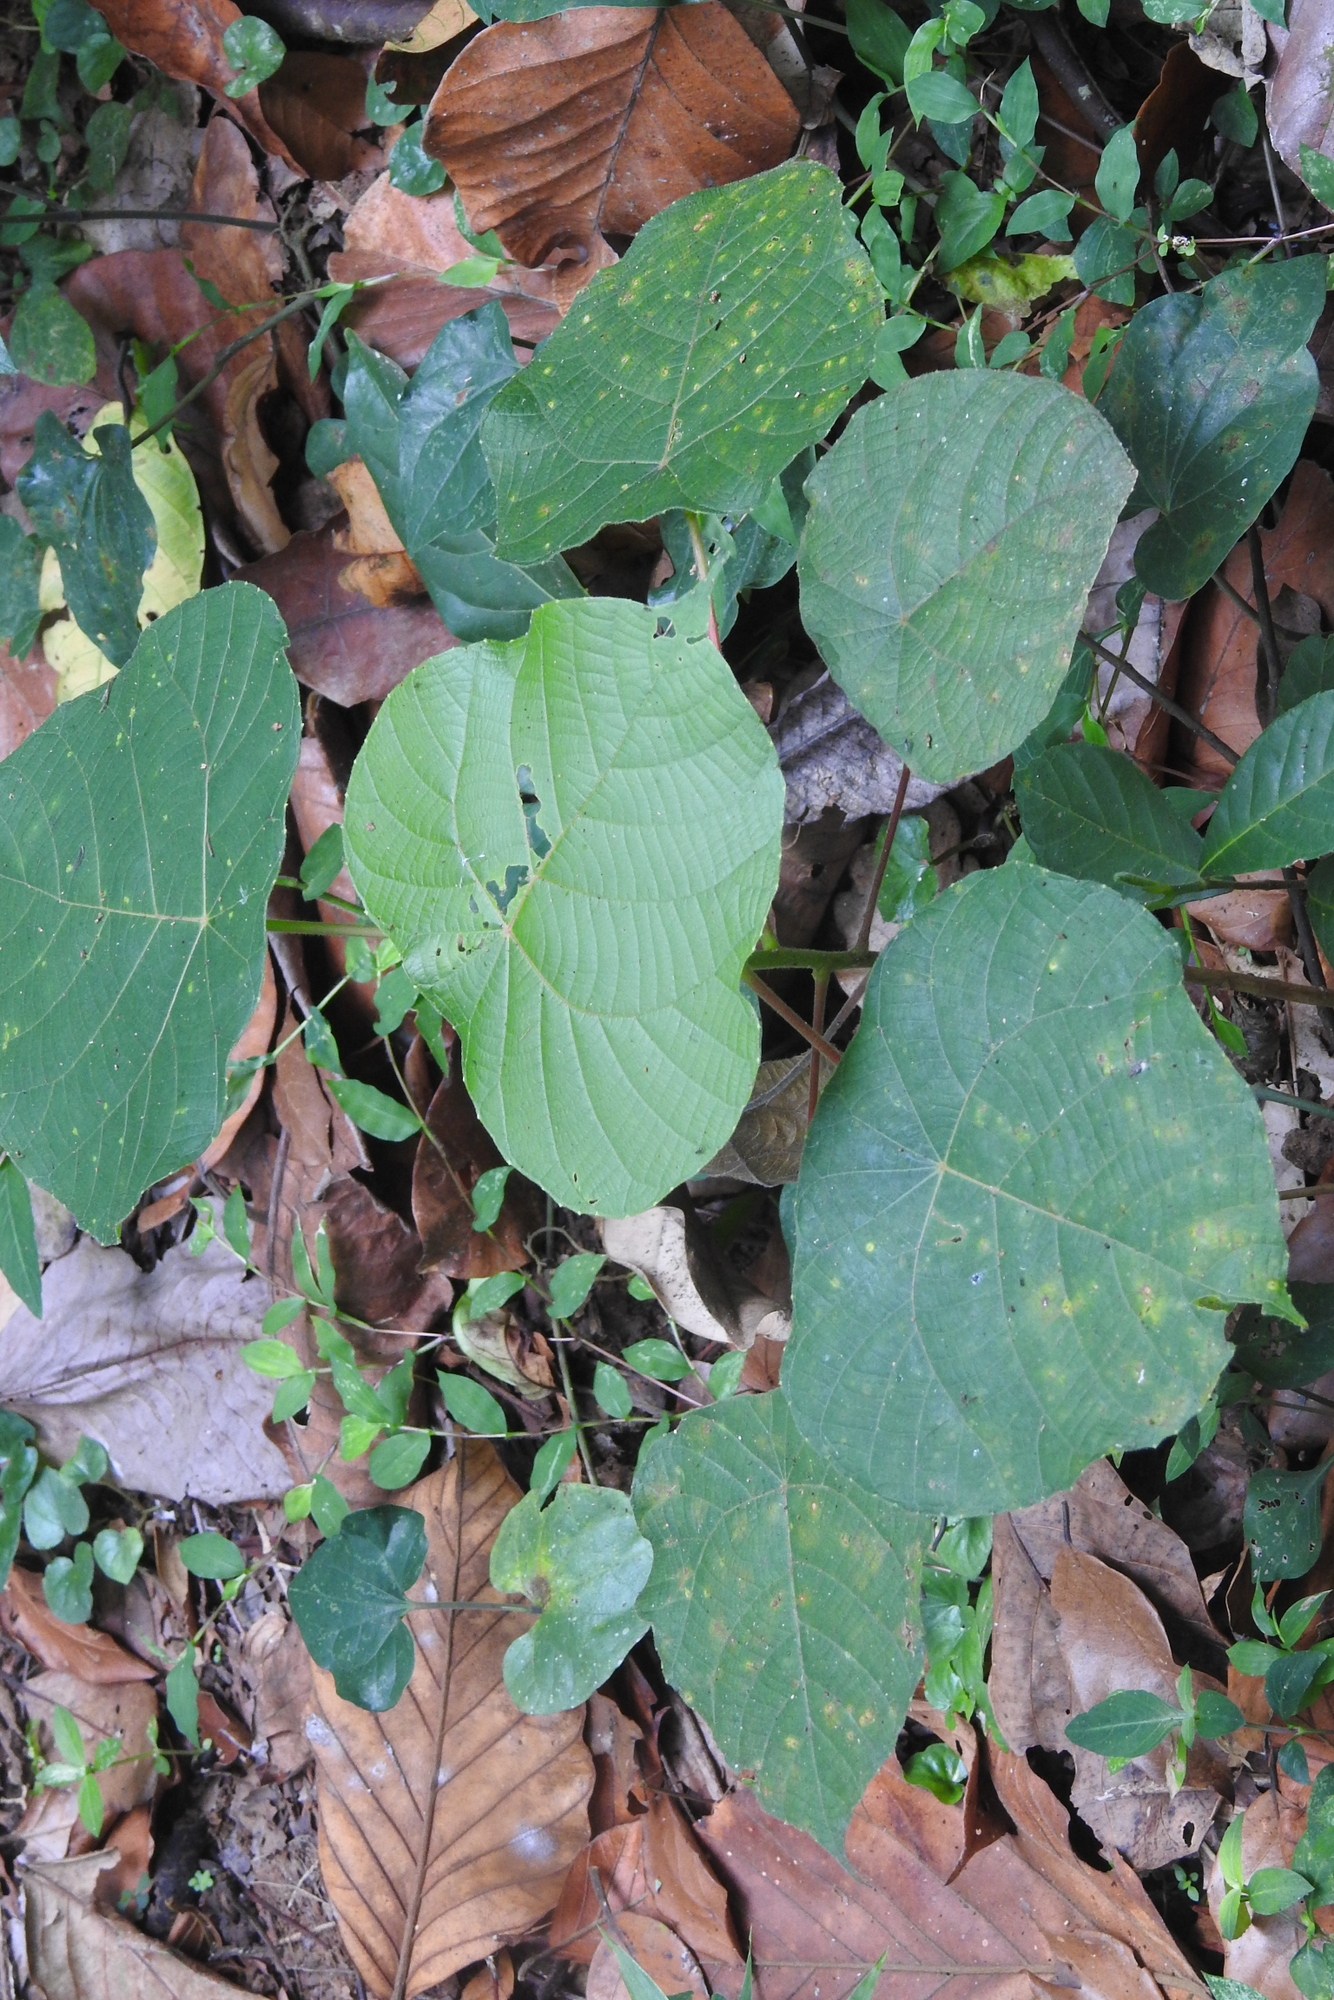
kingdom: Plantae
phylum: Tracheophyta
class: Magnoliopsida
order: Malpighiales
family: Euphorbiaceae
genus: Macaranga
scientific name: Macaranga peltata
